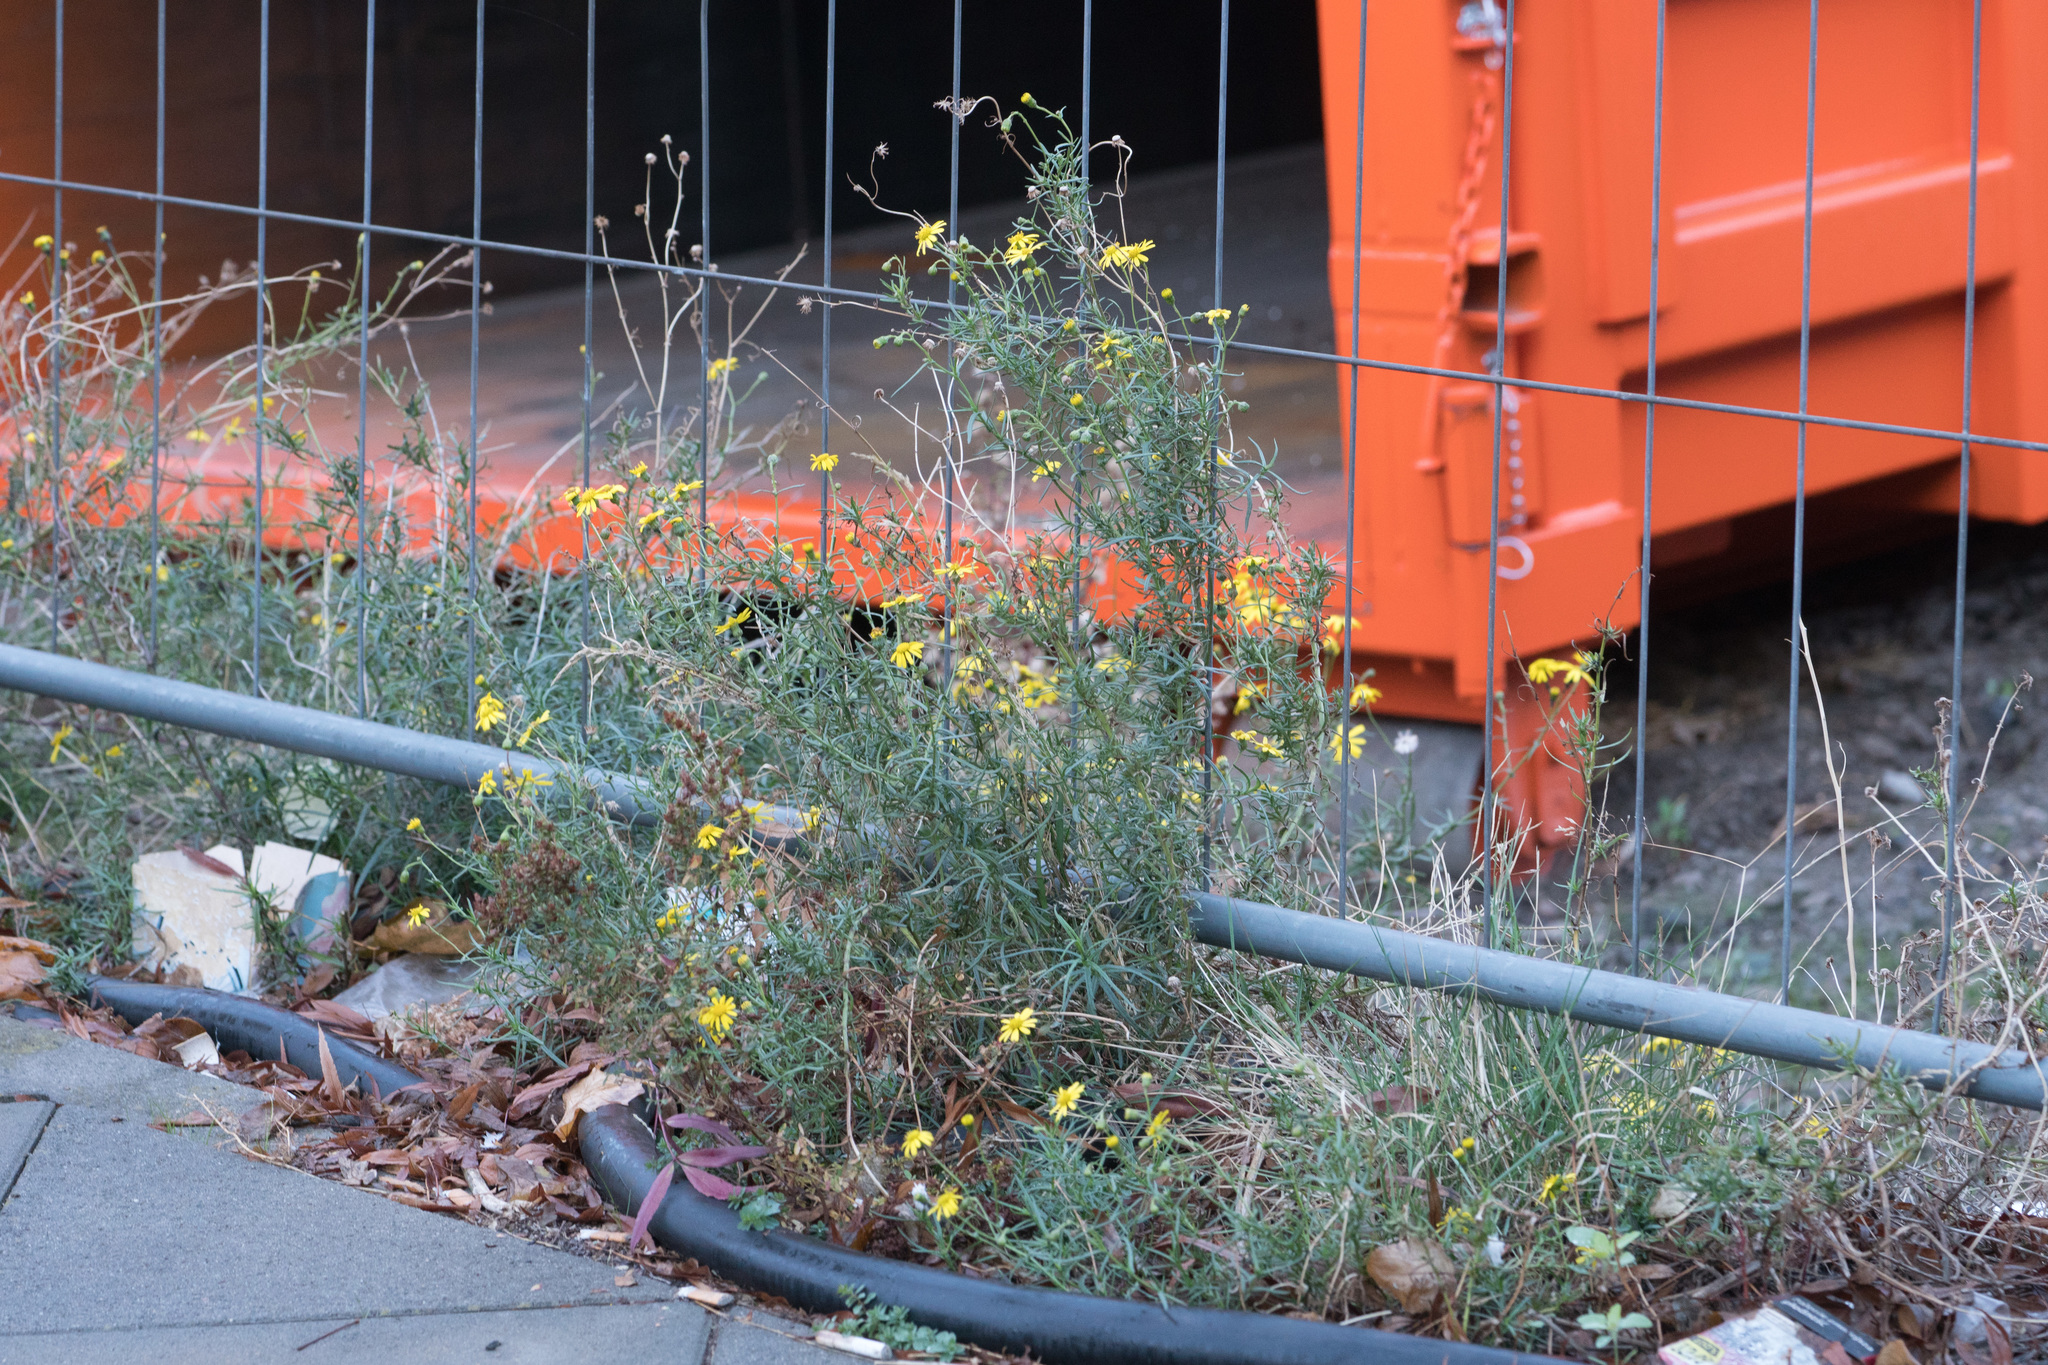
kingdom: Plantae
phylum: Tracheophyta
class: Magnoliopsida
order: Asterales
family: Asteraceae
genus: Senecio
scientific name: Senecio inaequidens
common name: Narrow-leaved ragwort
